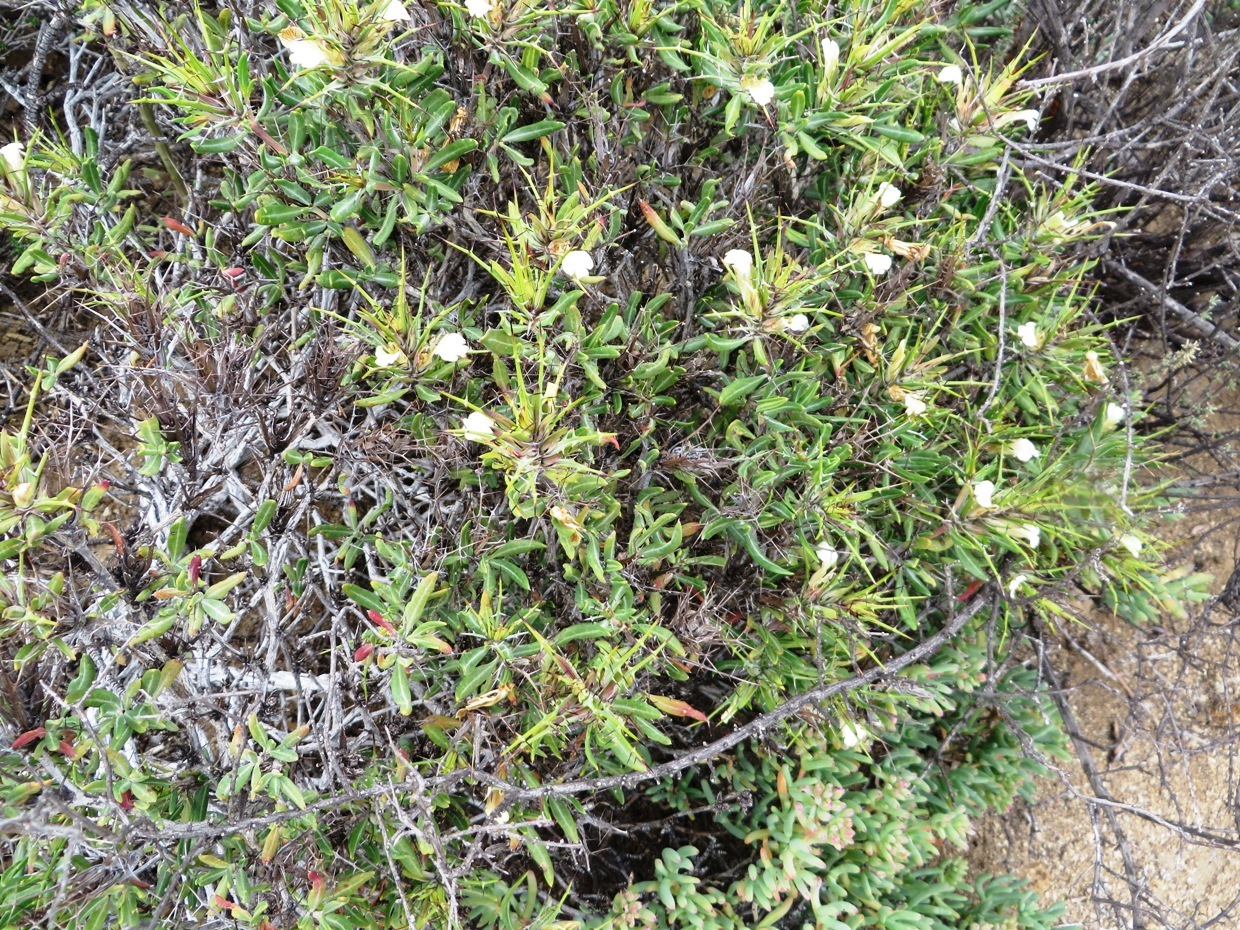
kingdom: Plantae
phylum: Tracheophyta
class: Magnoliopsida
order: Lamiales
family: Acanthaceae
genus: Blepharis
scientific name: Blepharis macra
